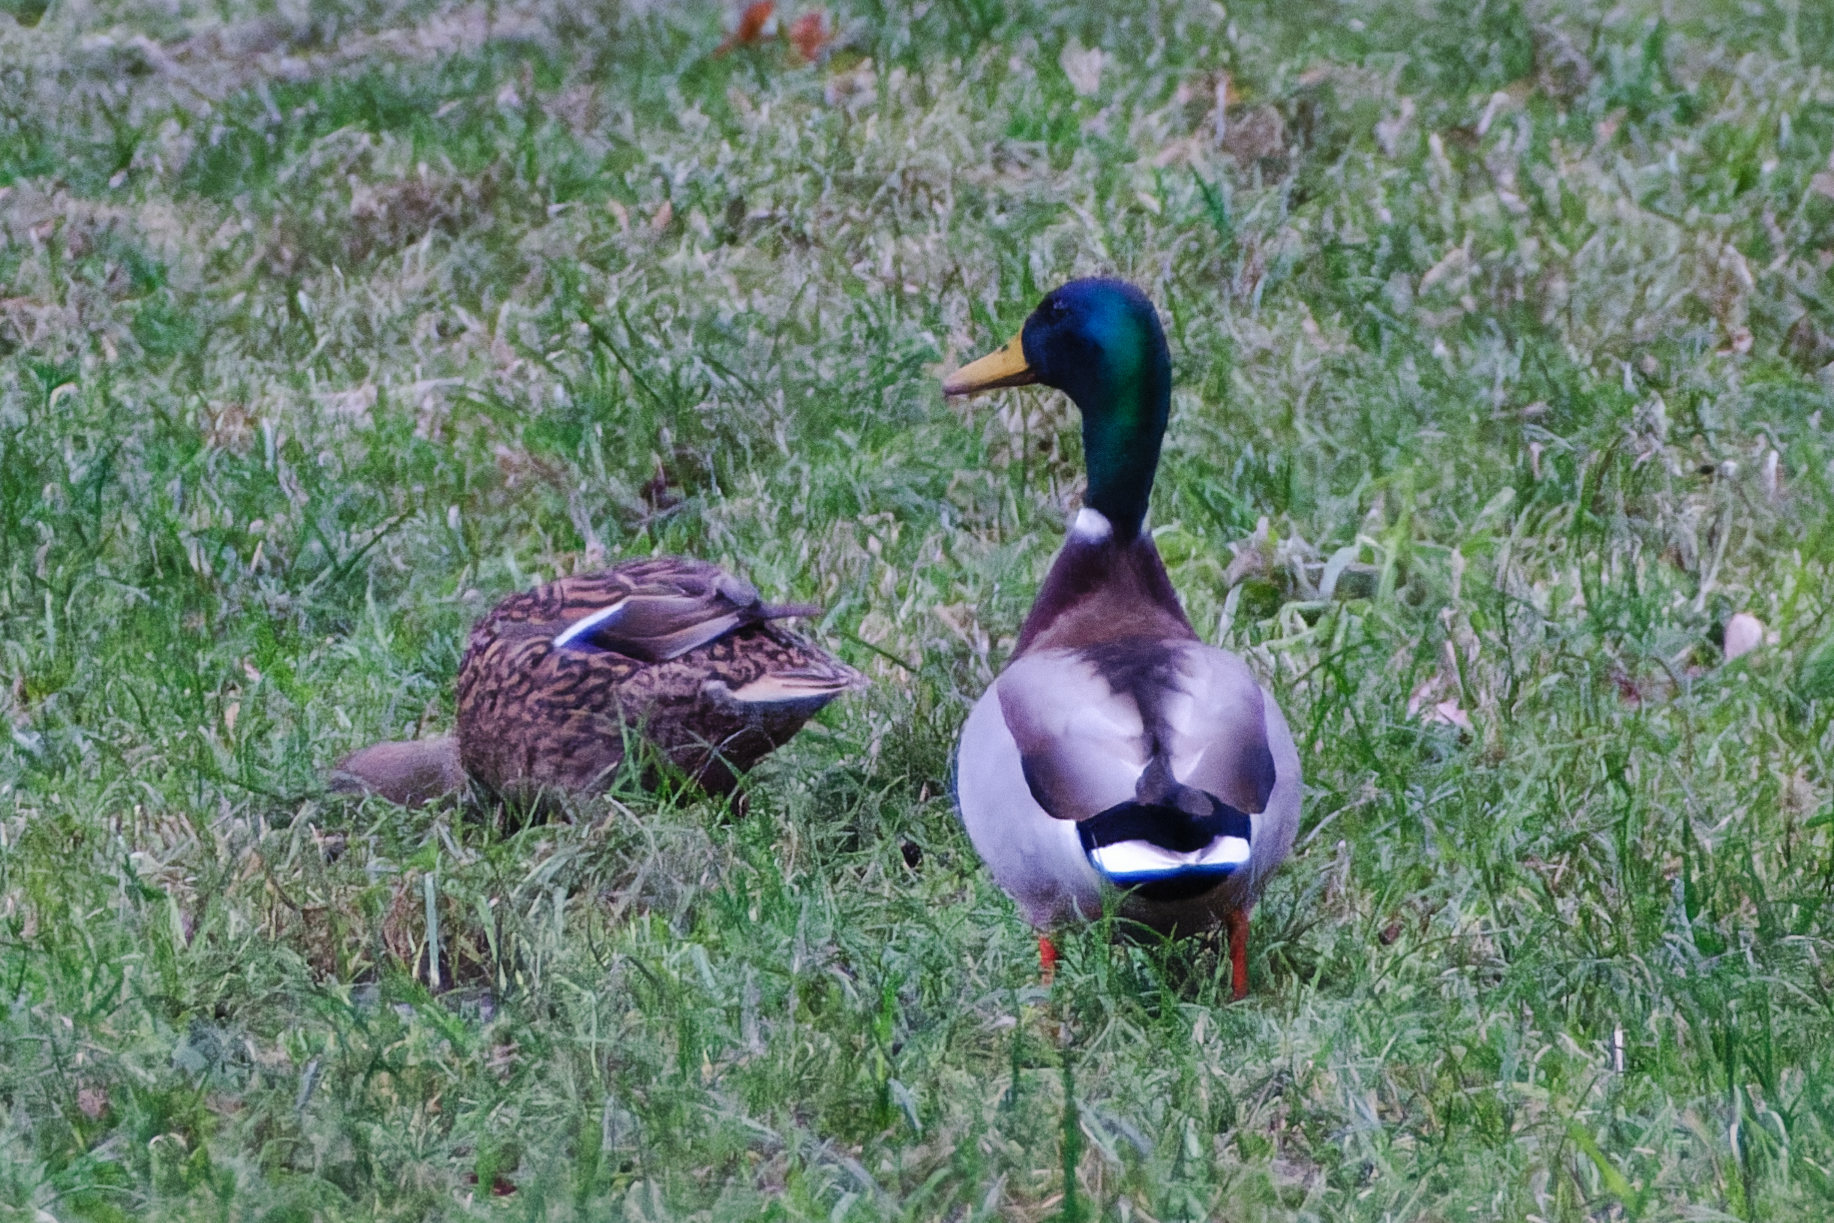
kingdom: Animalia
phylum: Chordata
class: Aves
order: Anseriformes
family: Anatidae
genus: Anas
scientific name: Anas platyrhynchos
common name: Mallard
